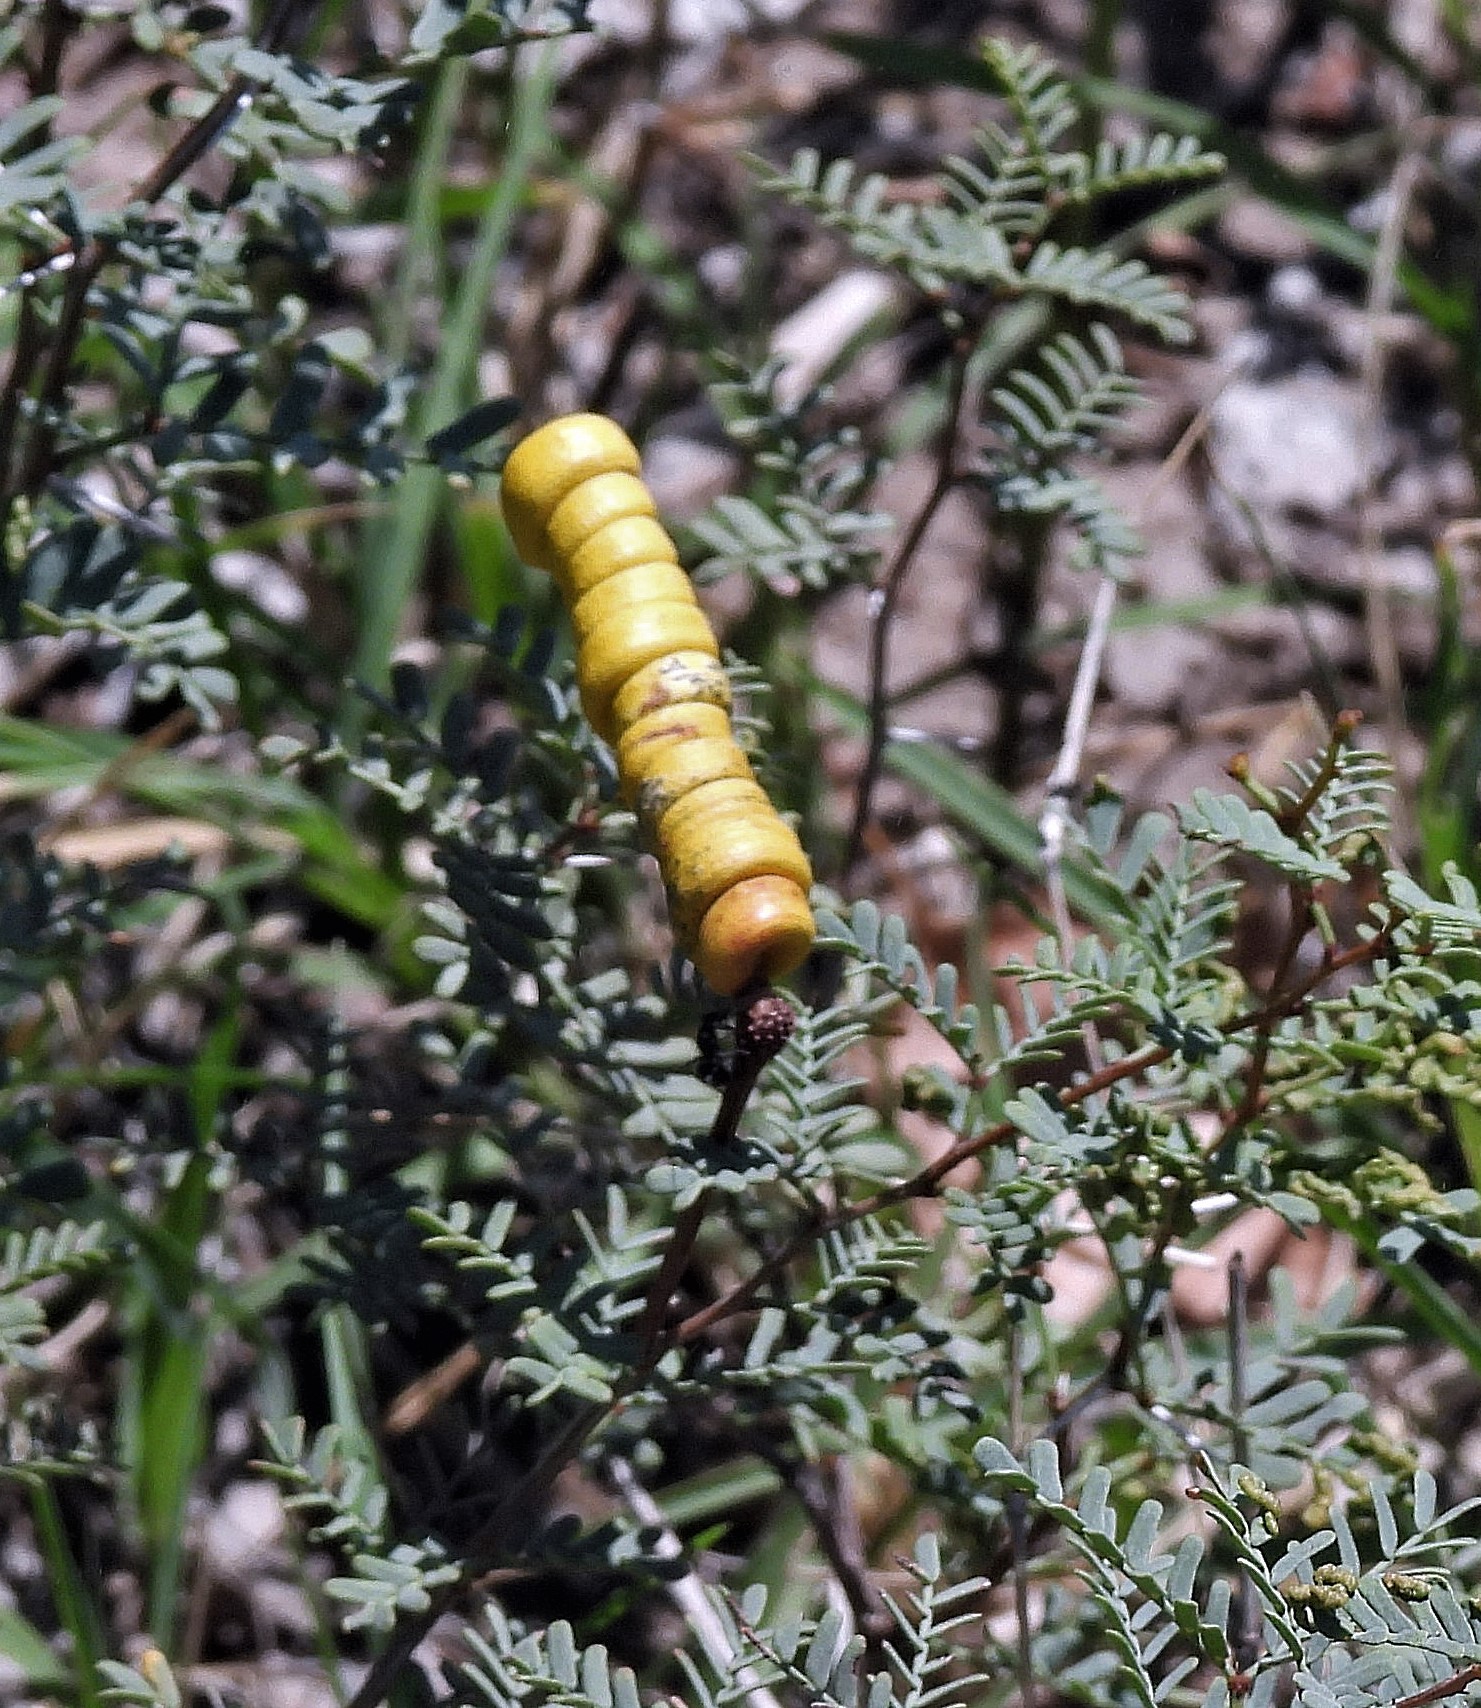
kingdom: Plantae
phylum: Tracheophyta
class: Magnoliopsida
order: Fabales
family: Fabaceae
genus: Prosopis
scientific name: Prosopis strombulifera
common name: Creeping mesquite
